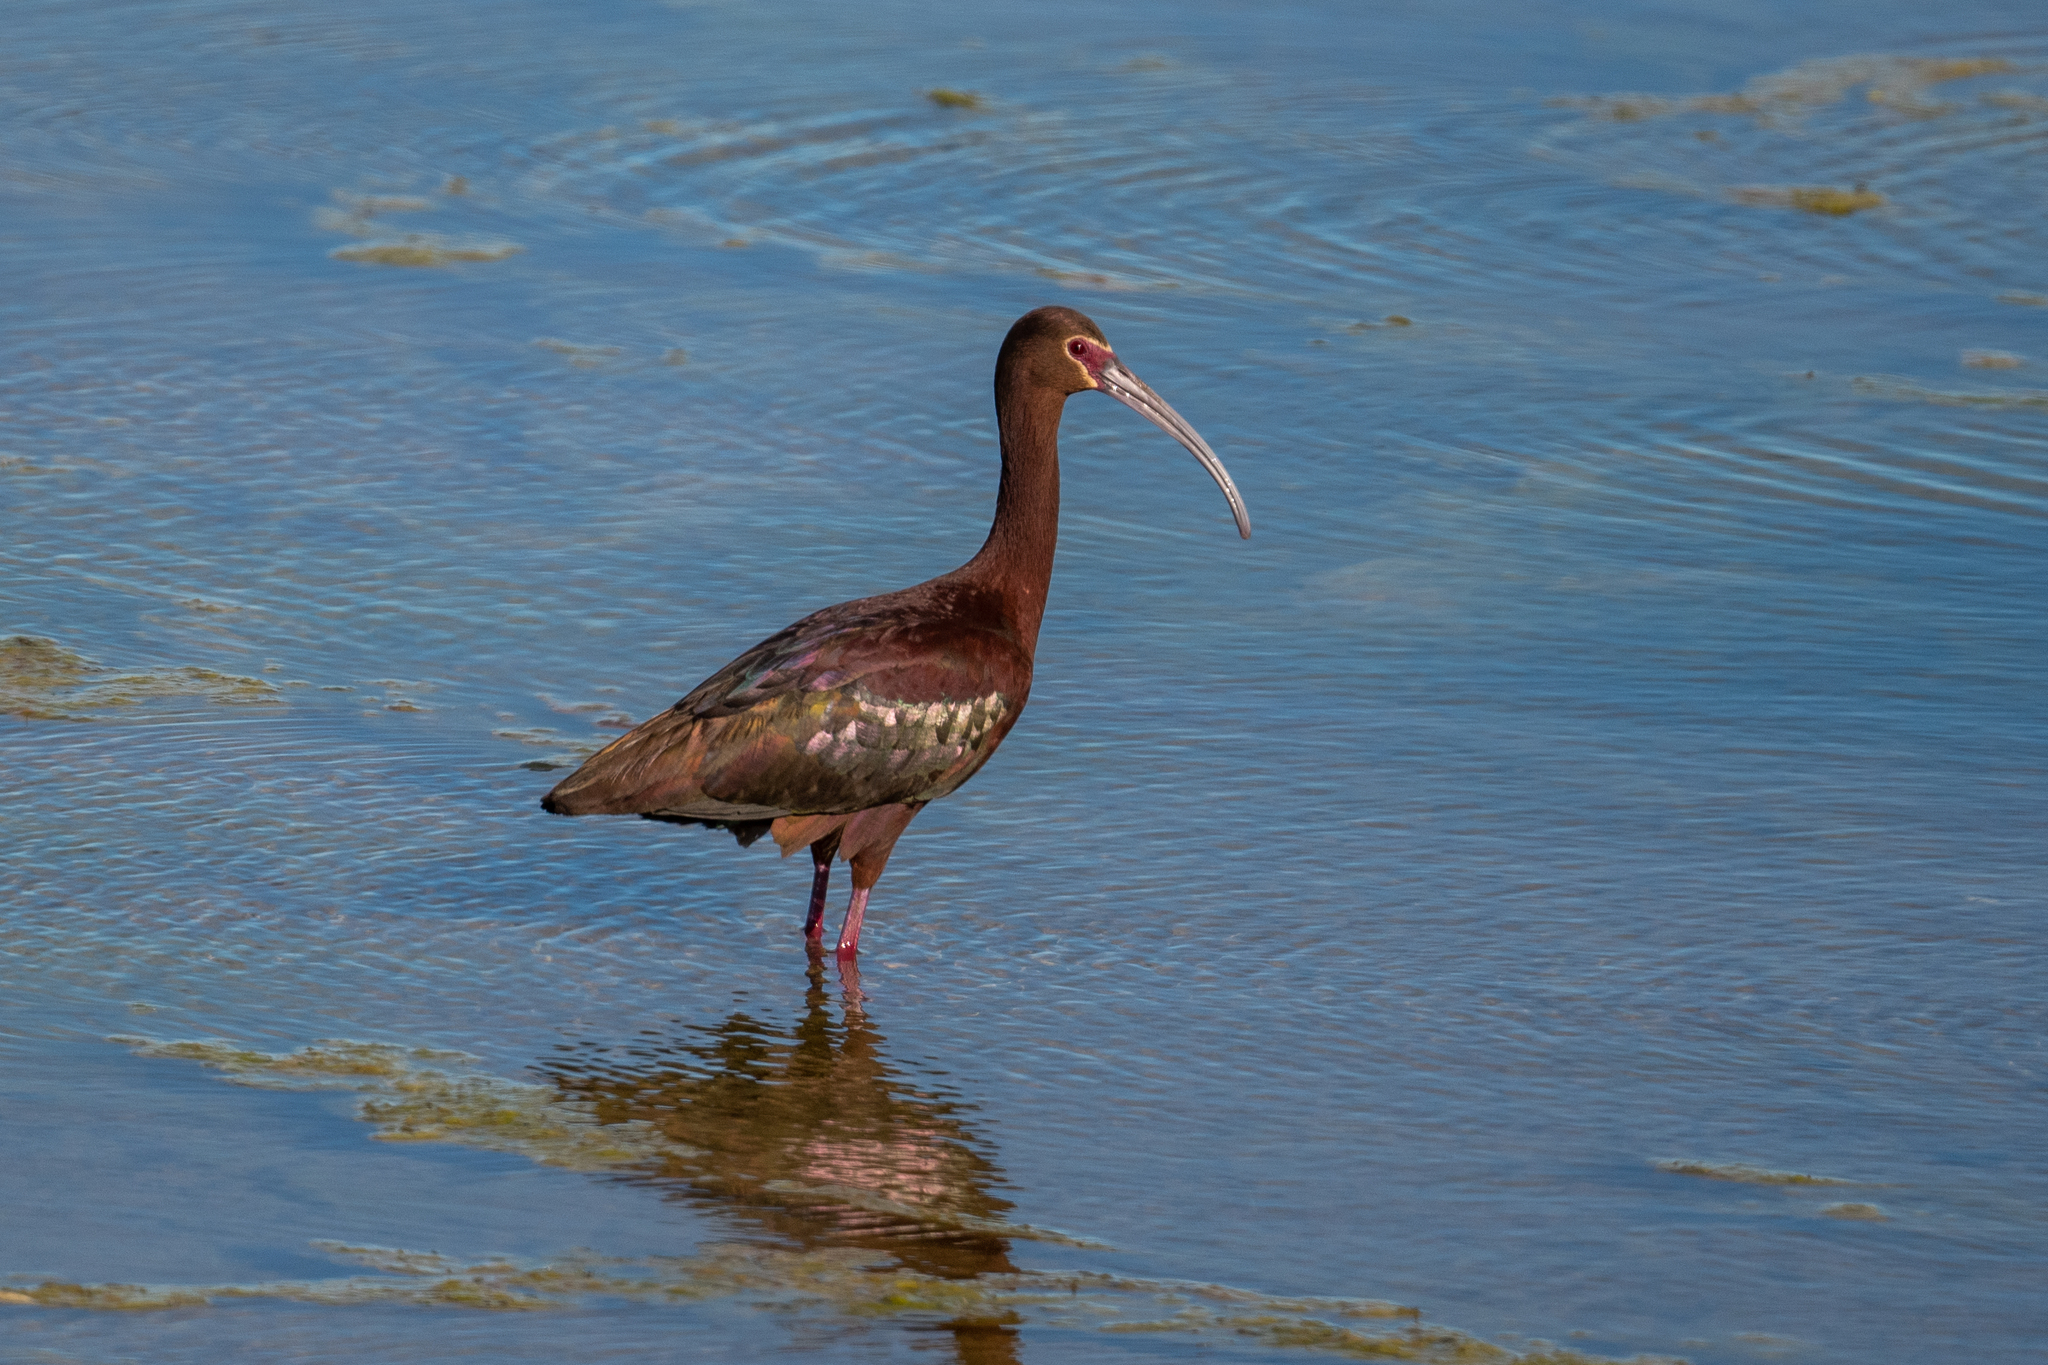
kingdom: Animalia
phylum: Chordata
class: Aves
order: Pelecaniformes
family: Threskiornithidae
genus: Plegadis
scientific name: Plegadis chihi
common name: White-faced ibis
